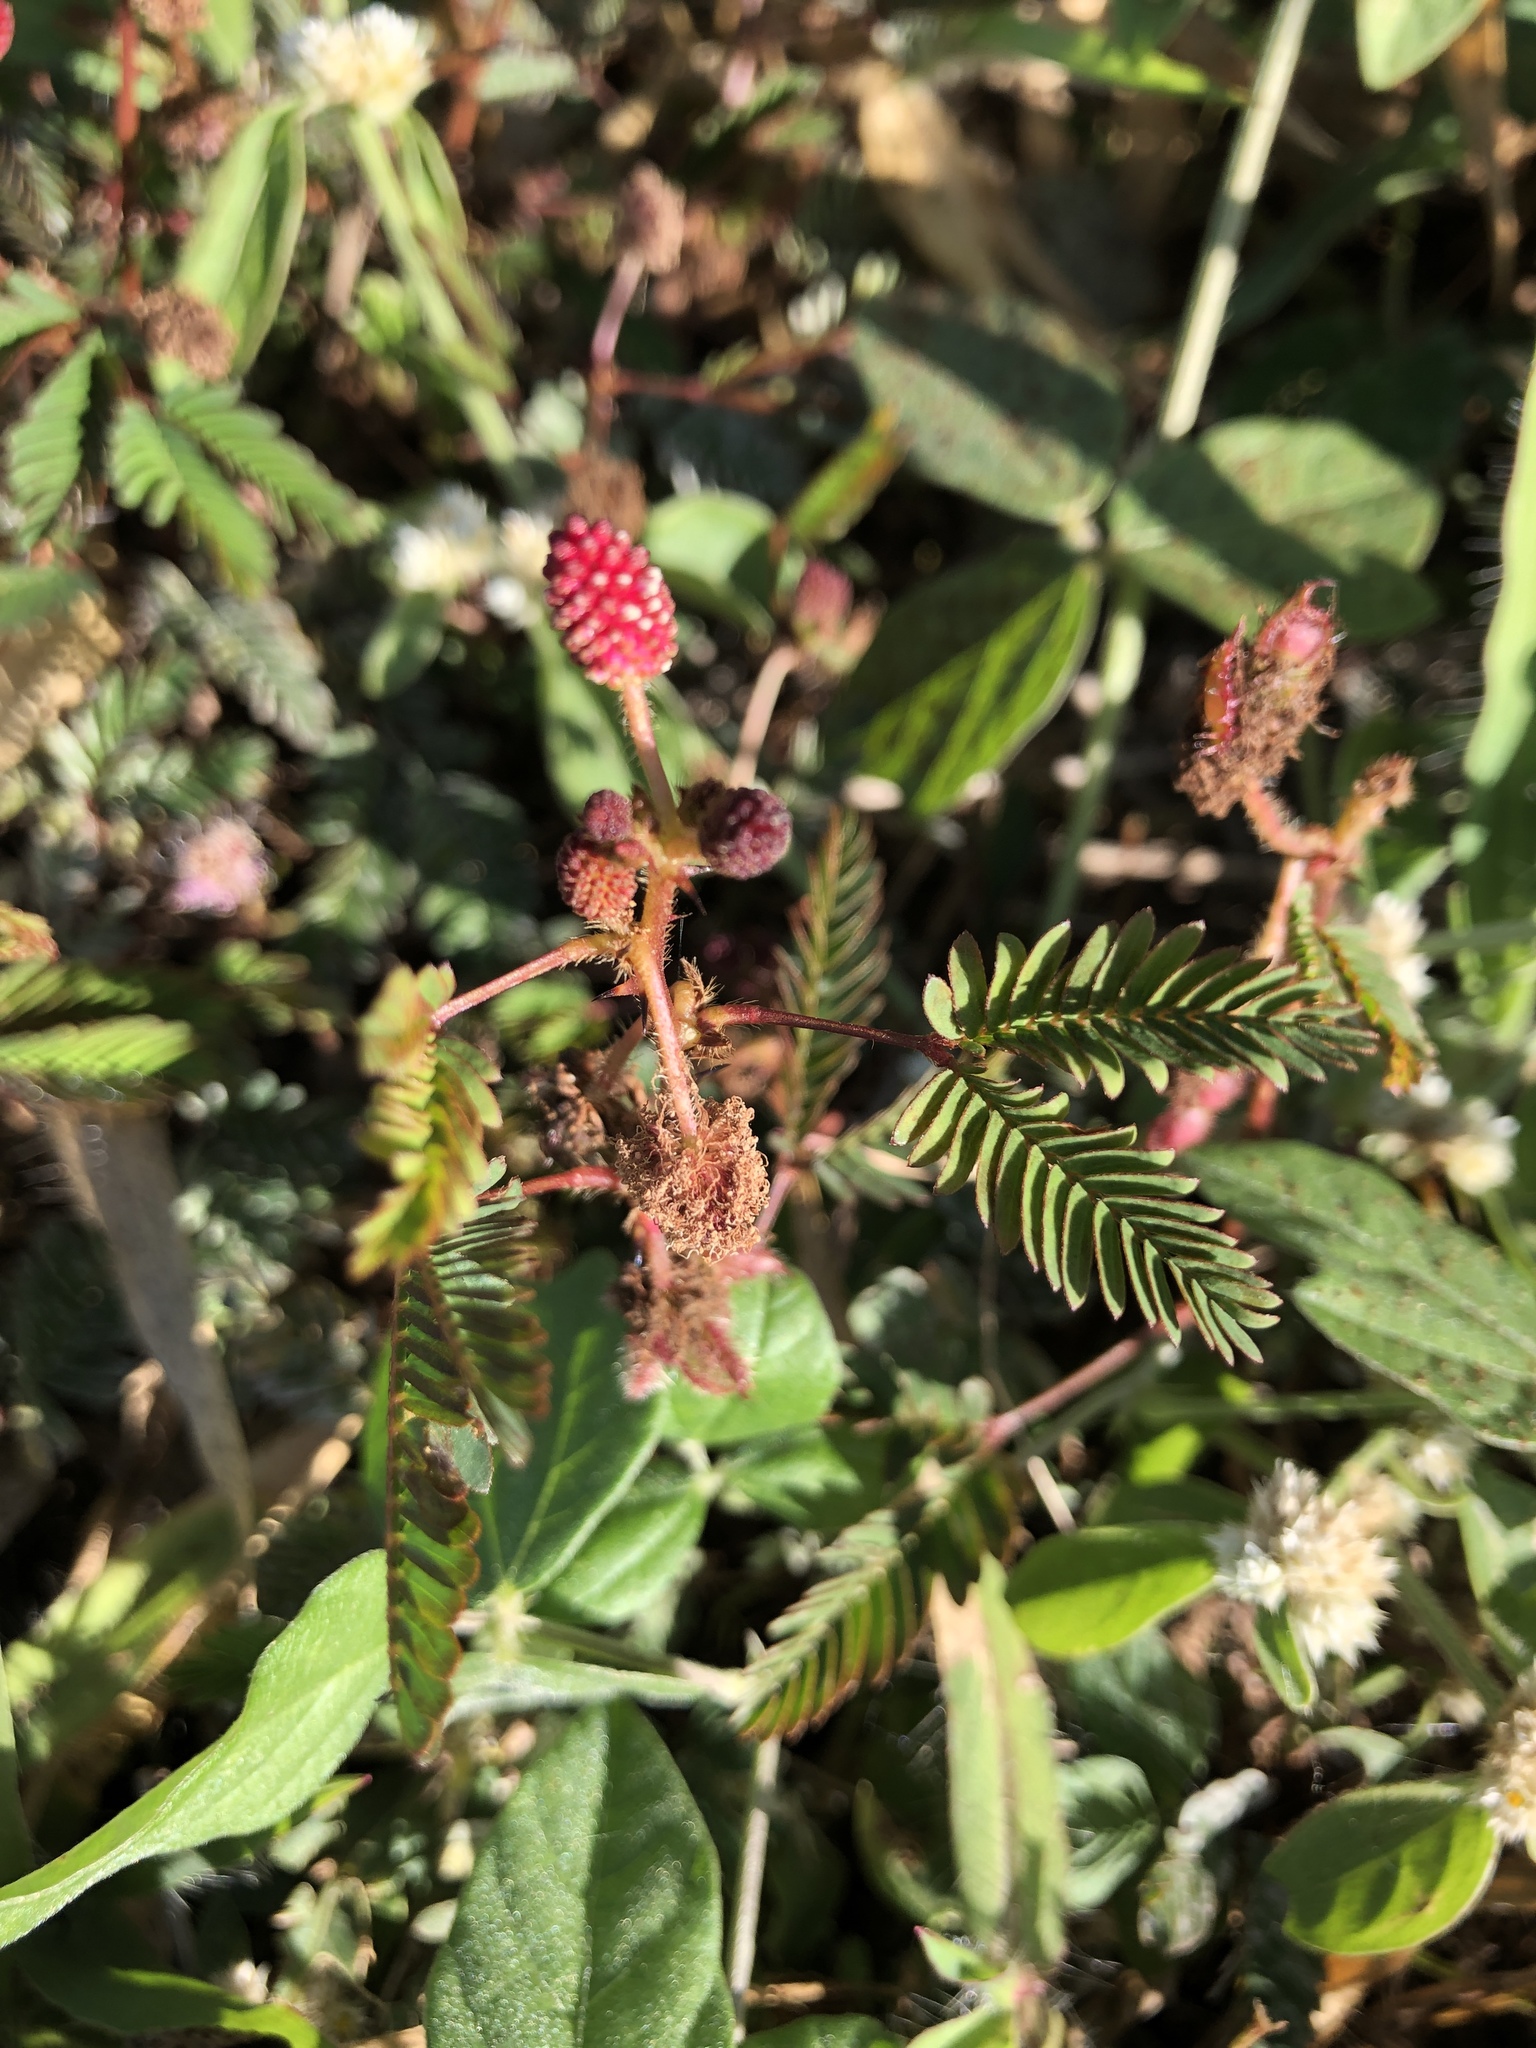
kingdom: Plantae
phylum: Tracheophyta
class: Magnoliopsida
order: Fabales
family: Fabaceae
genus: Mimosa
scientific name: Mimosa pudica
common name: Sensitive plant
